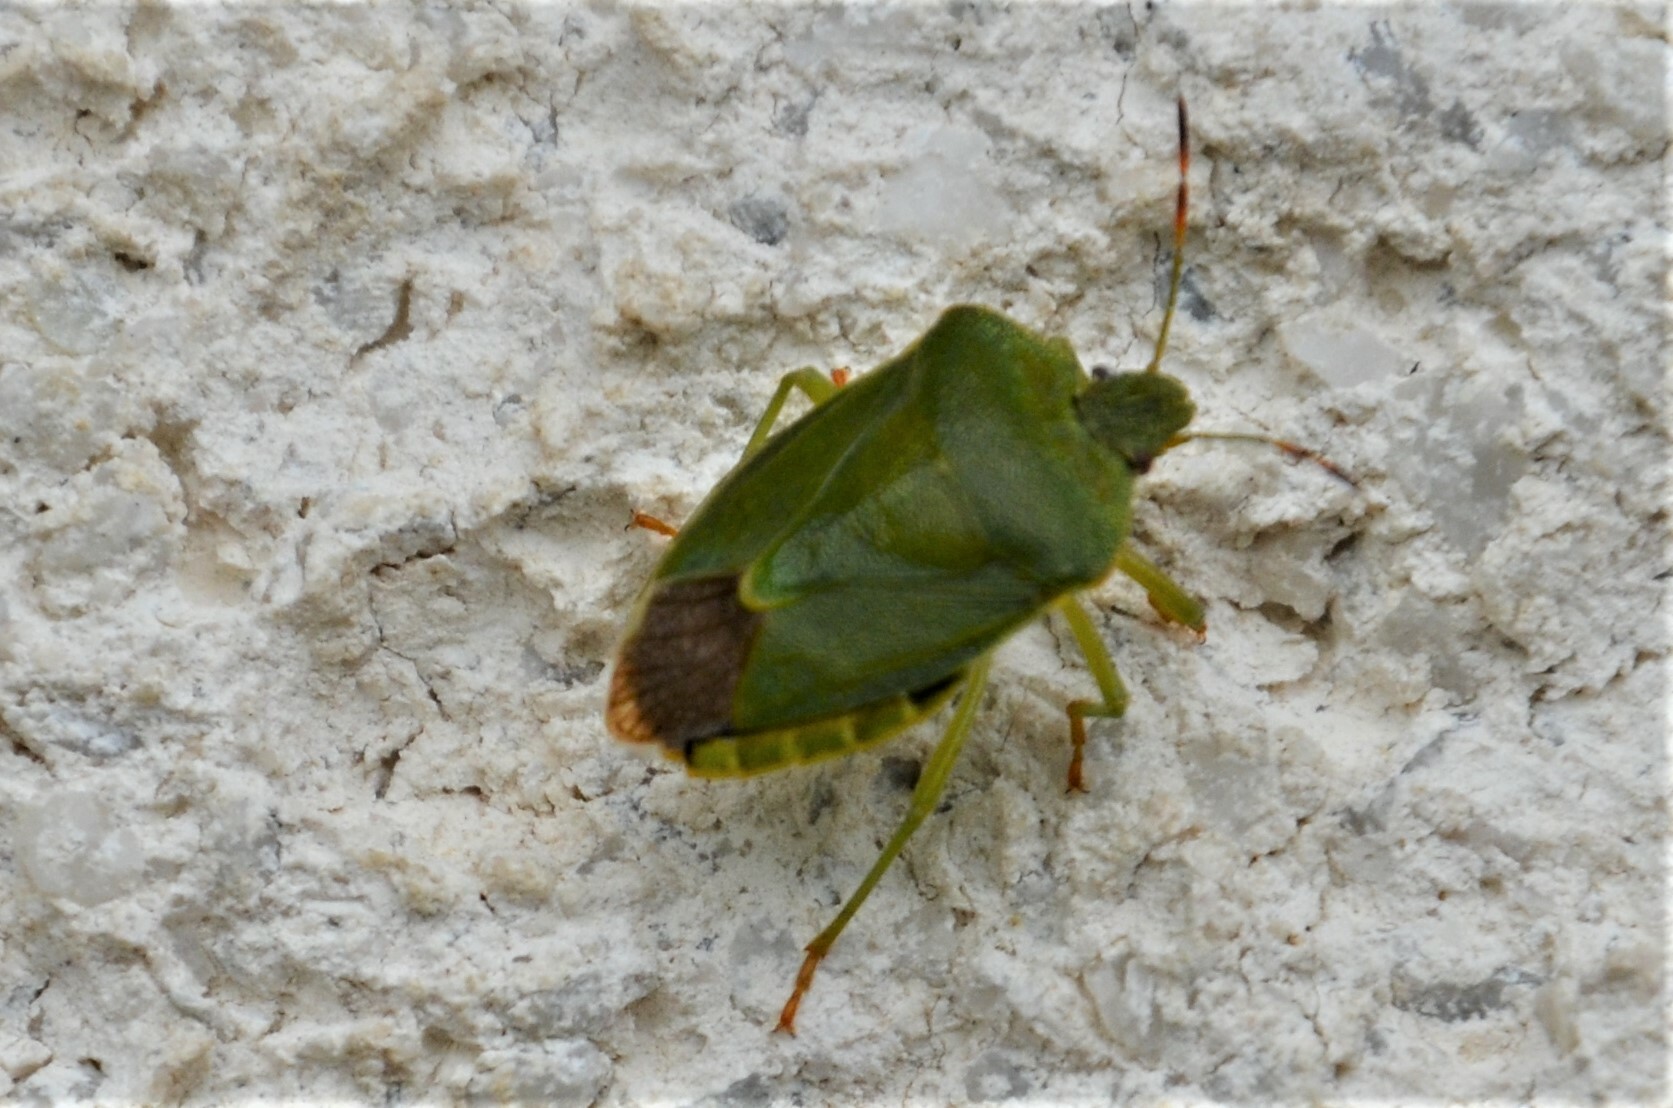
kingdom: Animalia
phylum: Arthropoda
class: Insecta
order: Hemiptera
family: Pentatomidae
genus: Palomena
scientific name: Palomena prasina
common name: Green shieldbug
